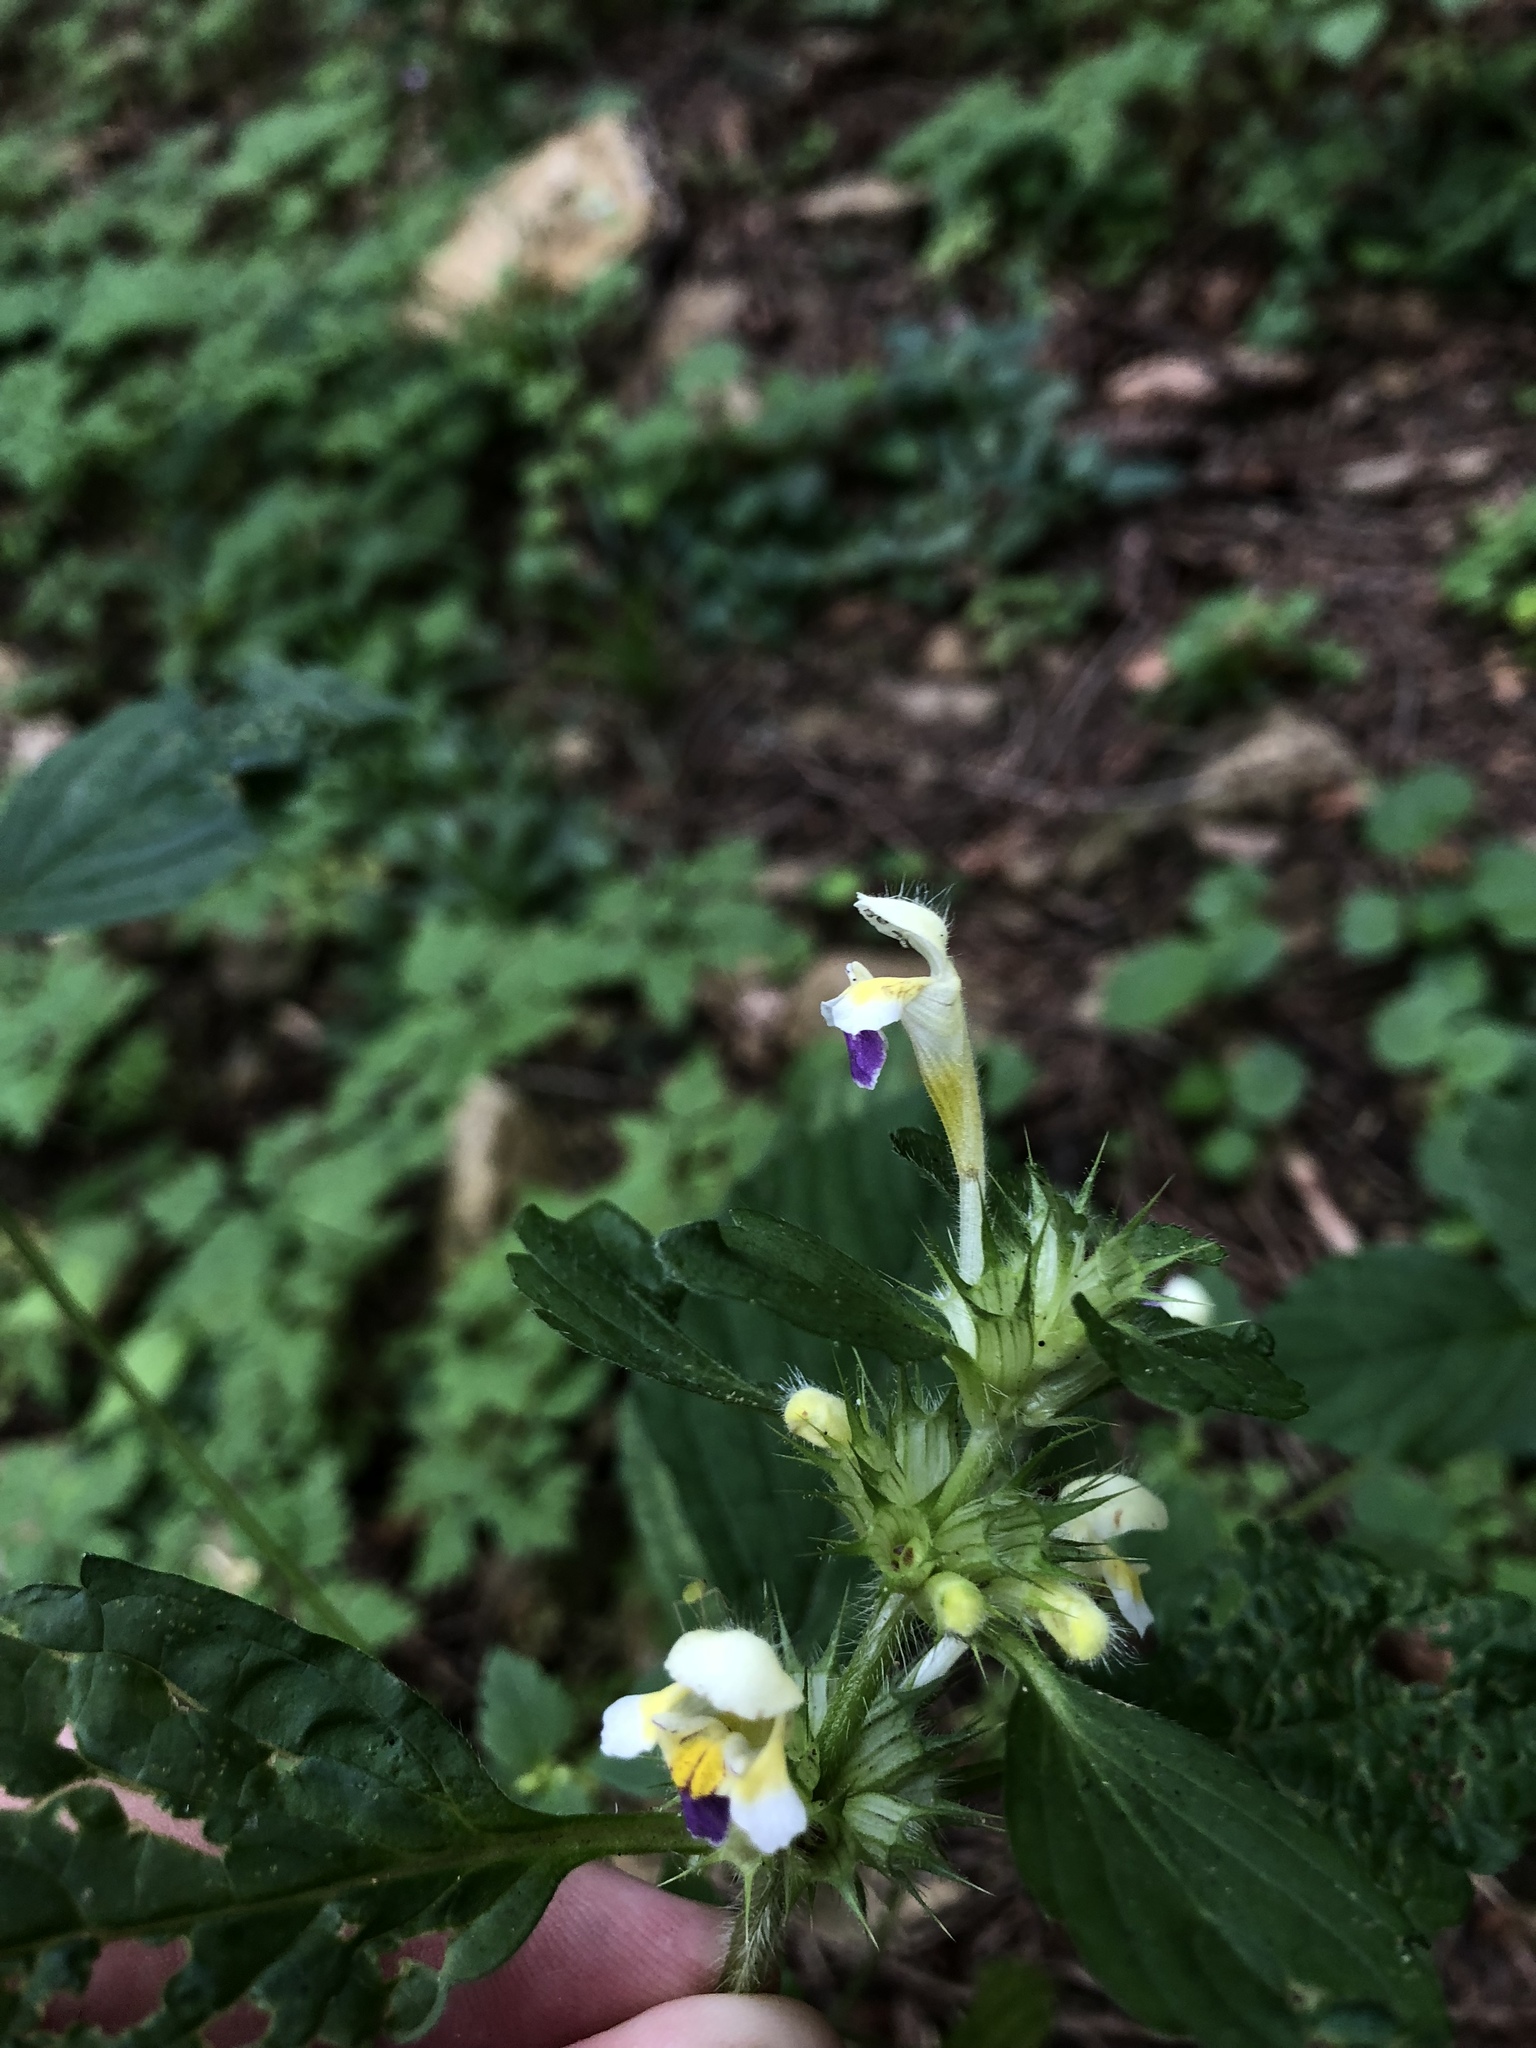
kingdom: Plantae
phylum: Tracheophyta
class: Magnoliopsida
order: Lamiales
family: Lamiaceae
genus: Galeopsis
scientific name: Galeopsis speciosa
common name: Large-flowered hemp-nettle
